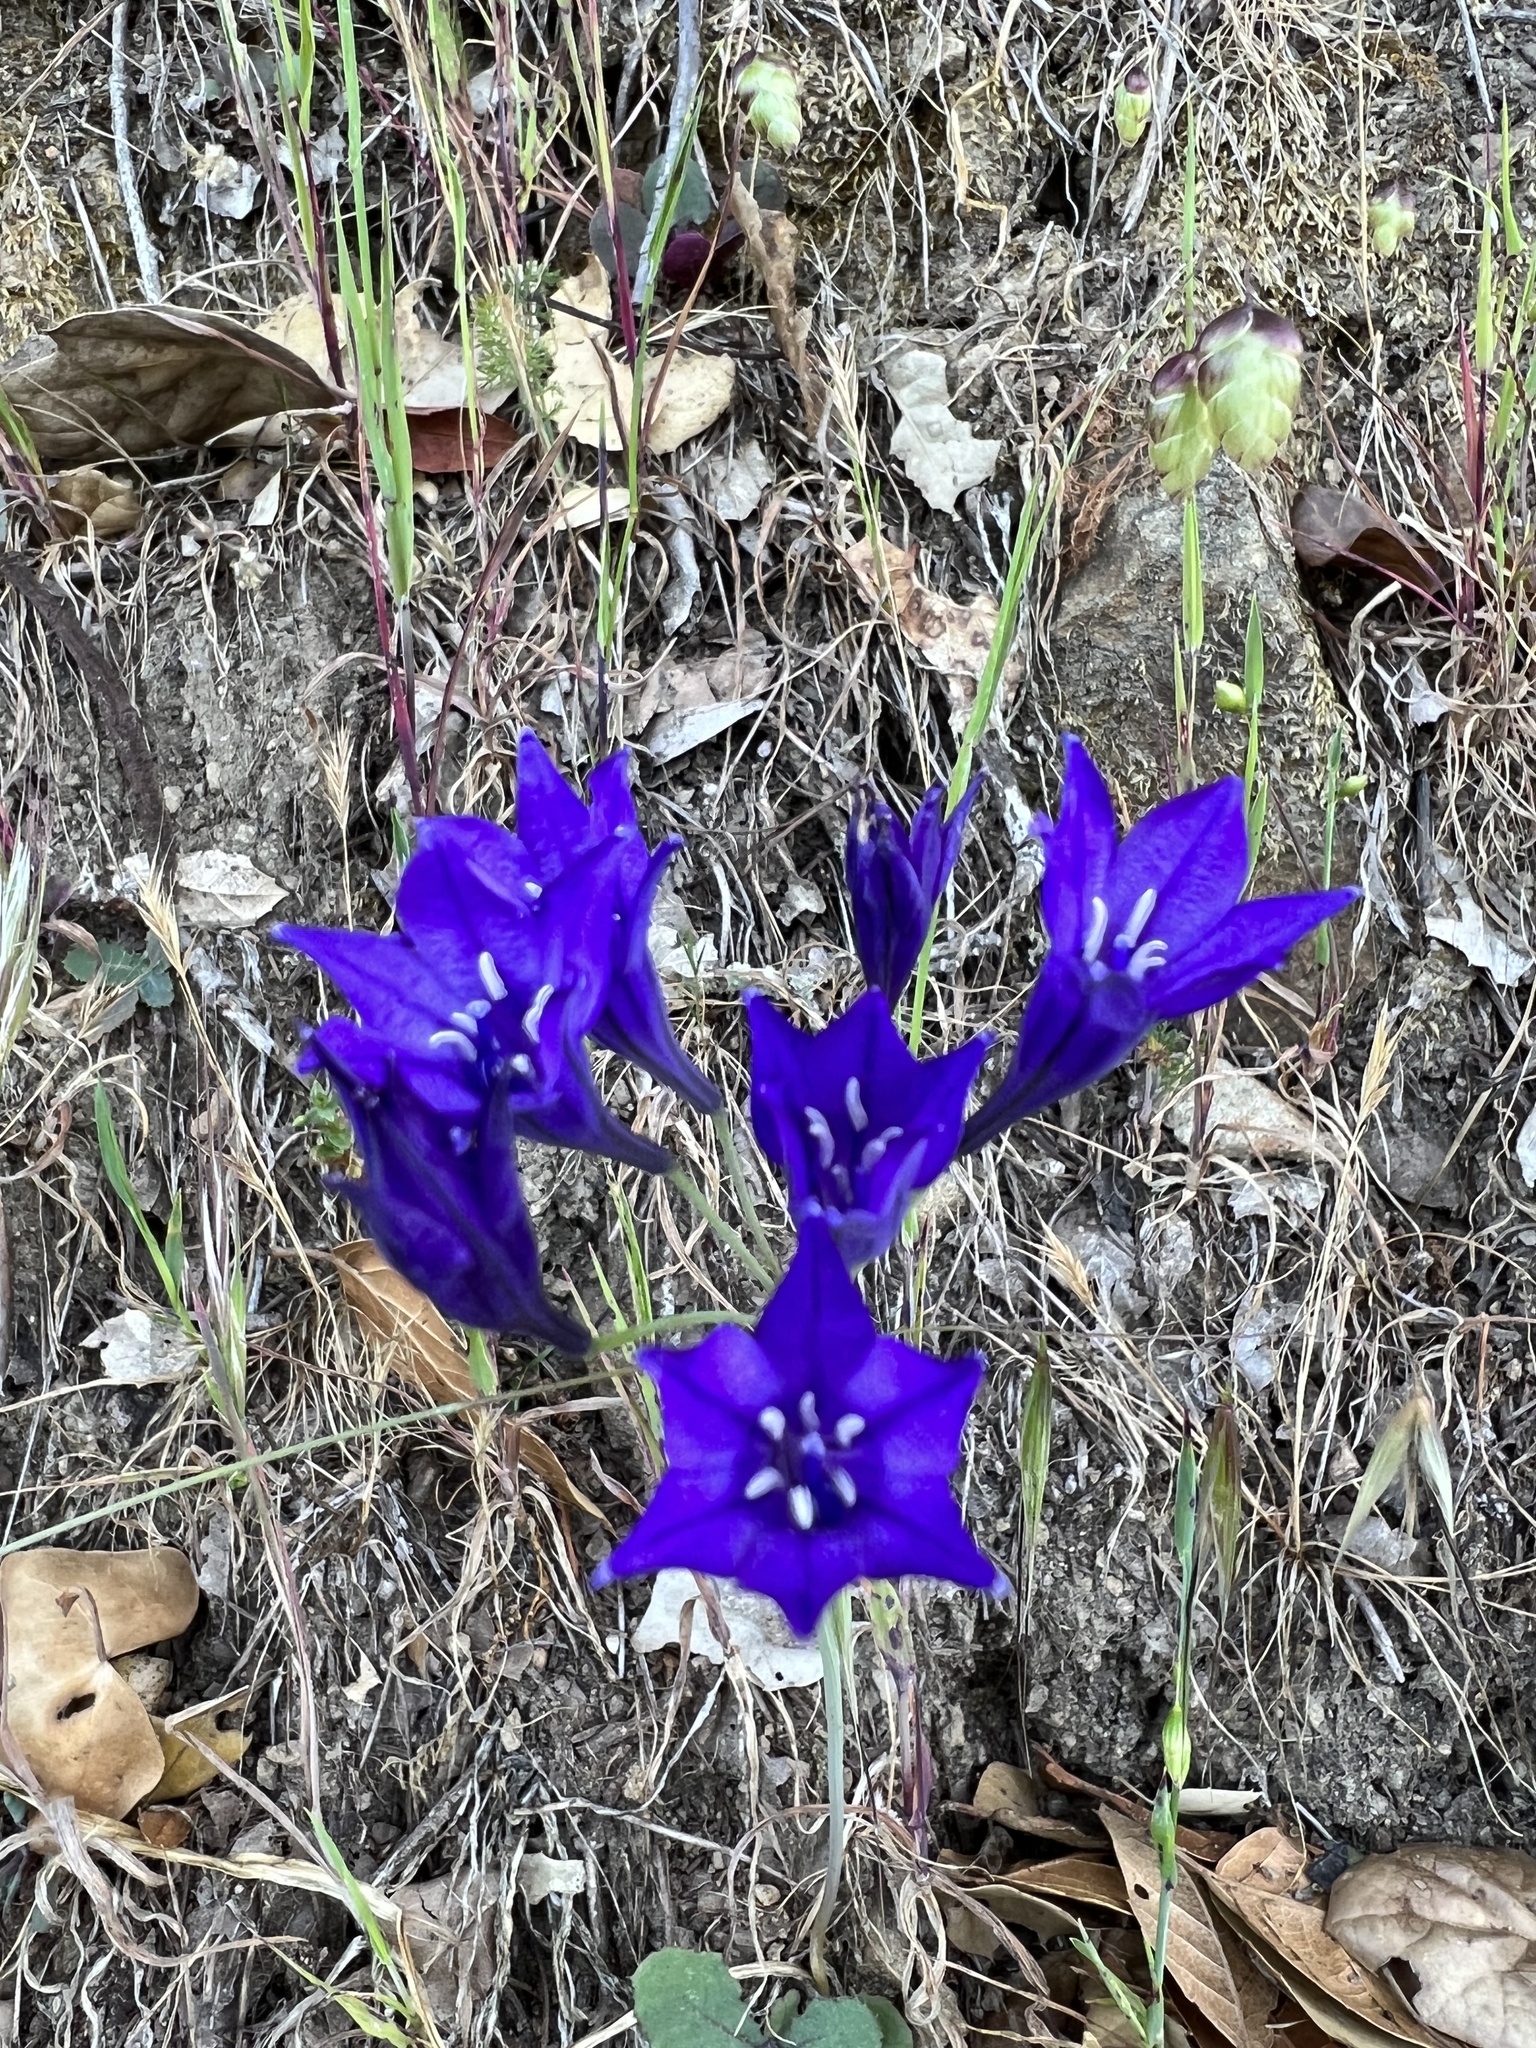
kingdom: Plantae
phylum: Tracheophyta
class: Liliopsida
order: Asparagales
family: Asparagaceae
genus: Triteleia
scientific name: Triteleia laxa
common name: Triplet-lily
